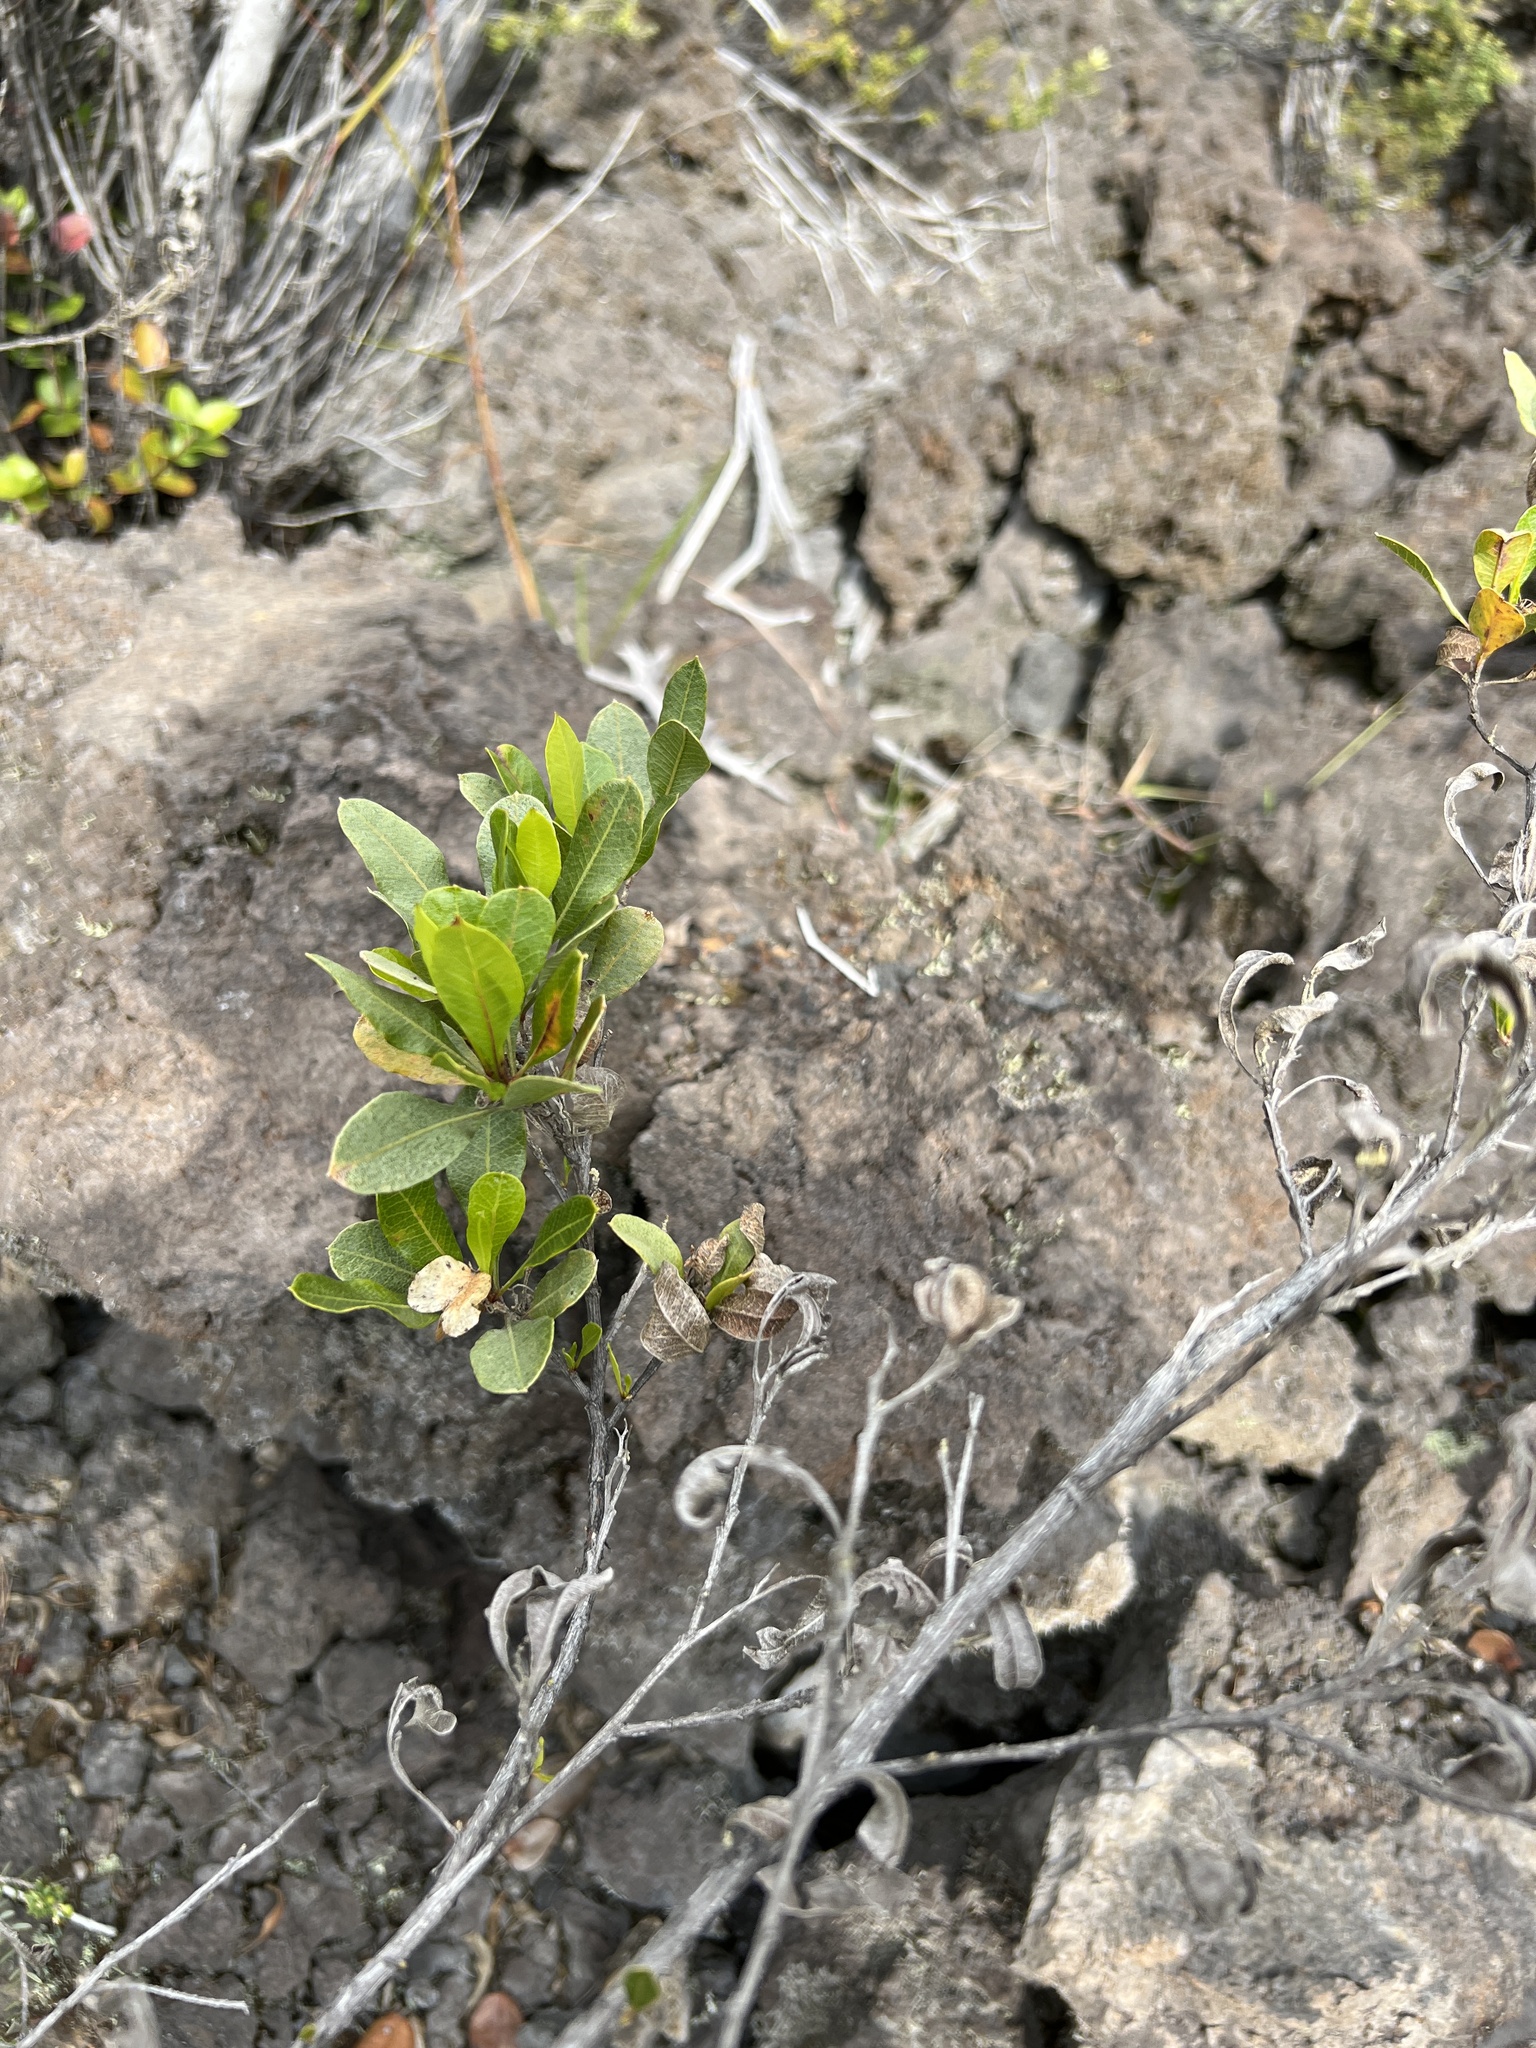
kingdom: Plantae
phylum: Tracheophyta
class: Magnoliopsida
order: Sapindales
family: Sapindaceae
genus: Dodonaea
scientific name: Dodonaea viscosa
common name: Hopbush
